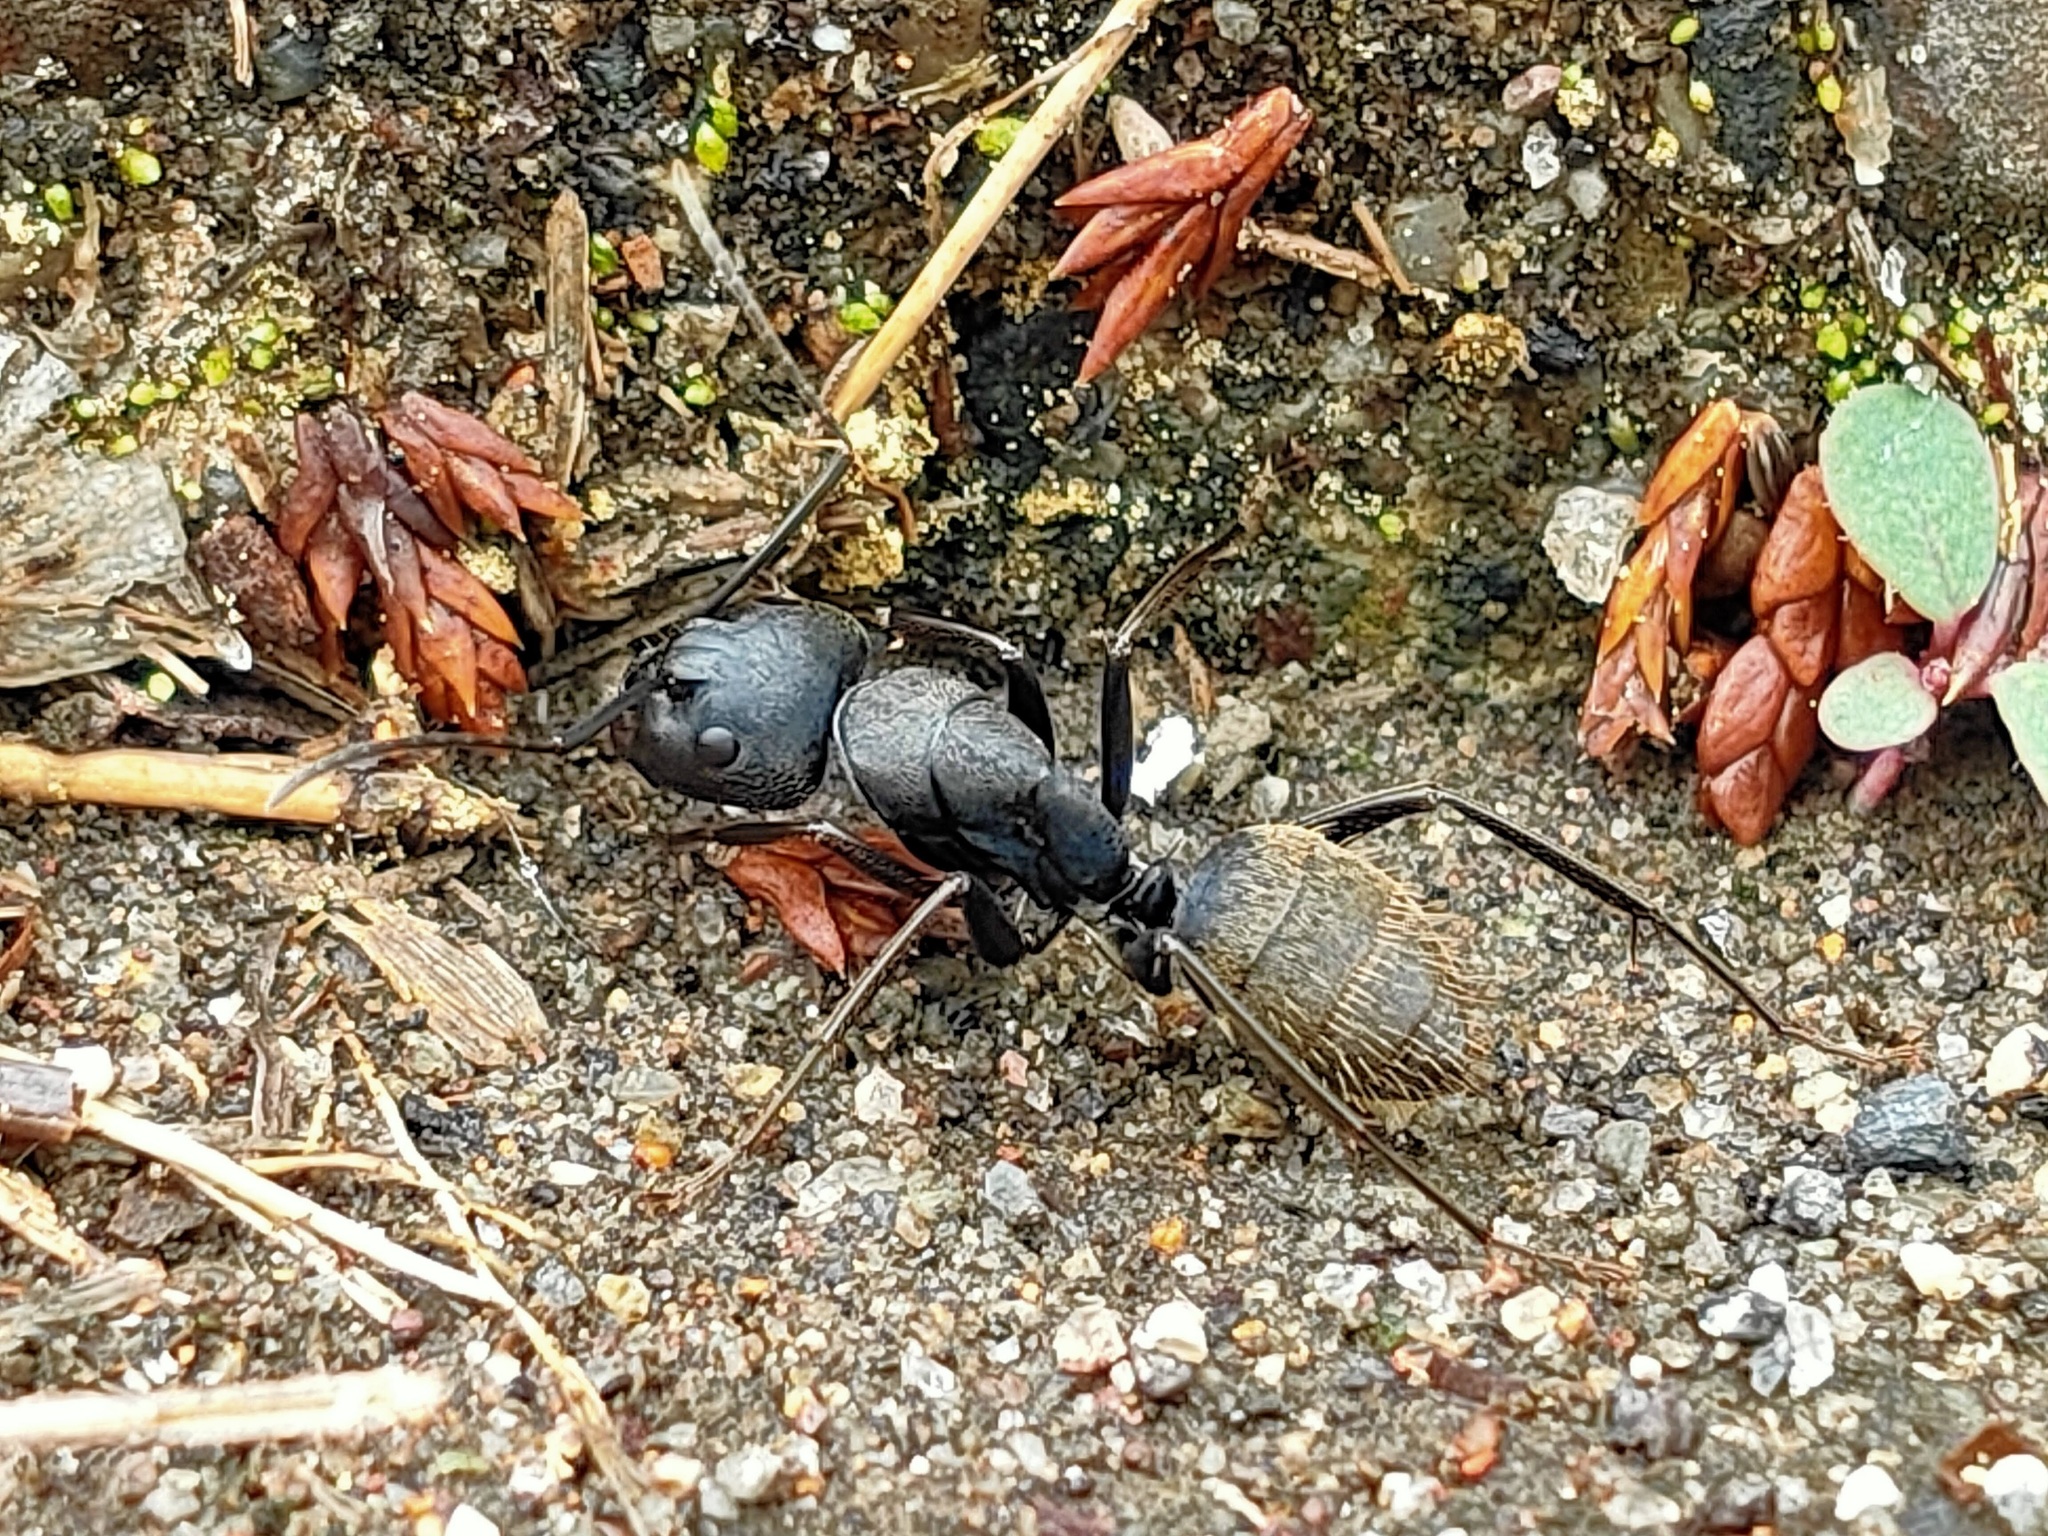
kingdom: Animalia
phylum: Arthropoda
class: Insecta
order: Hymenoptera
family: Formicidae
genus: Camponotus
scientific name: Camponotus japonicus
